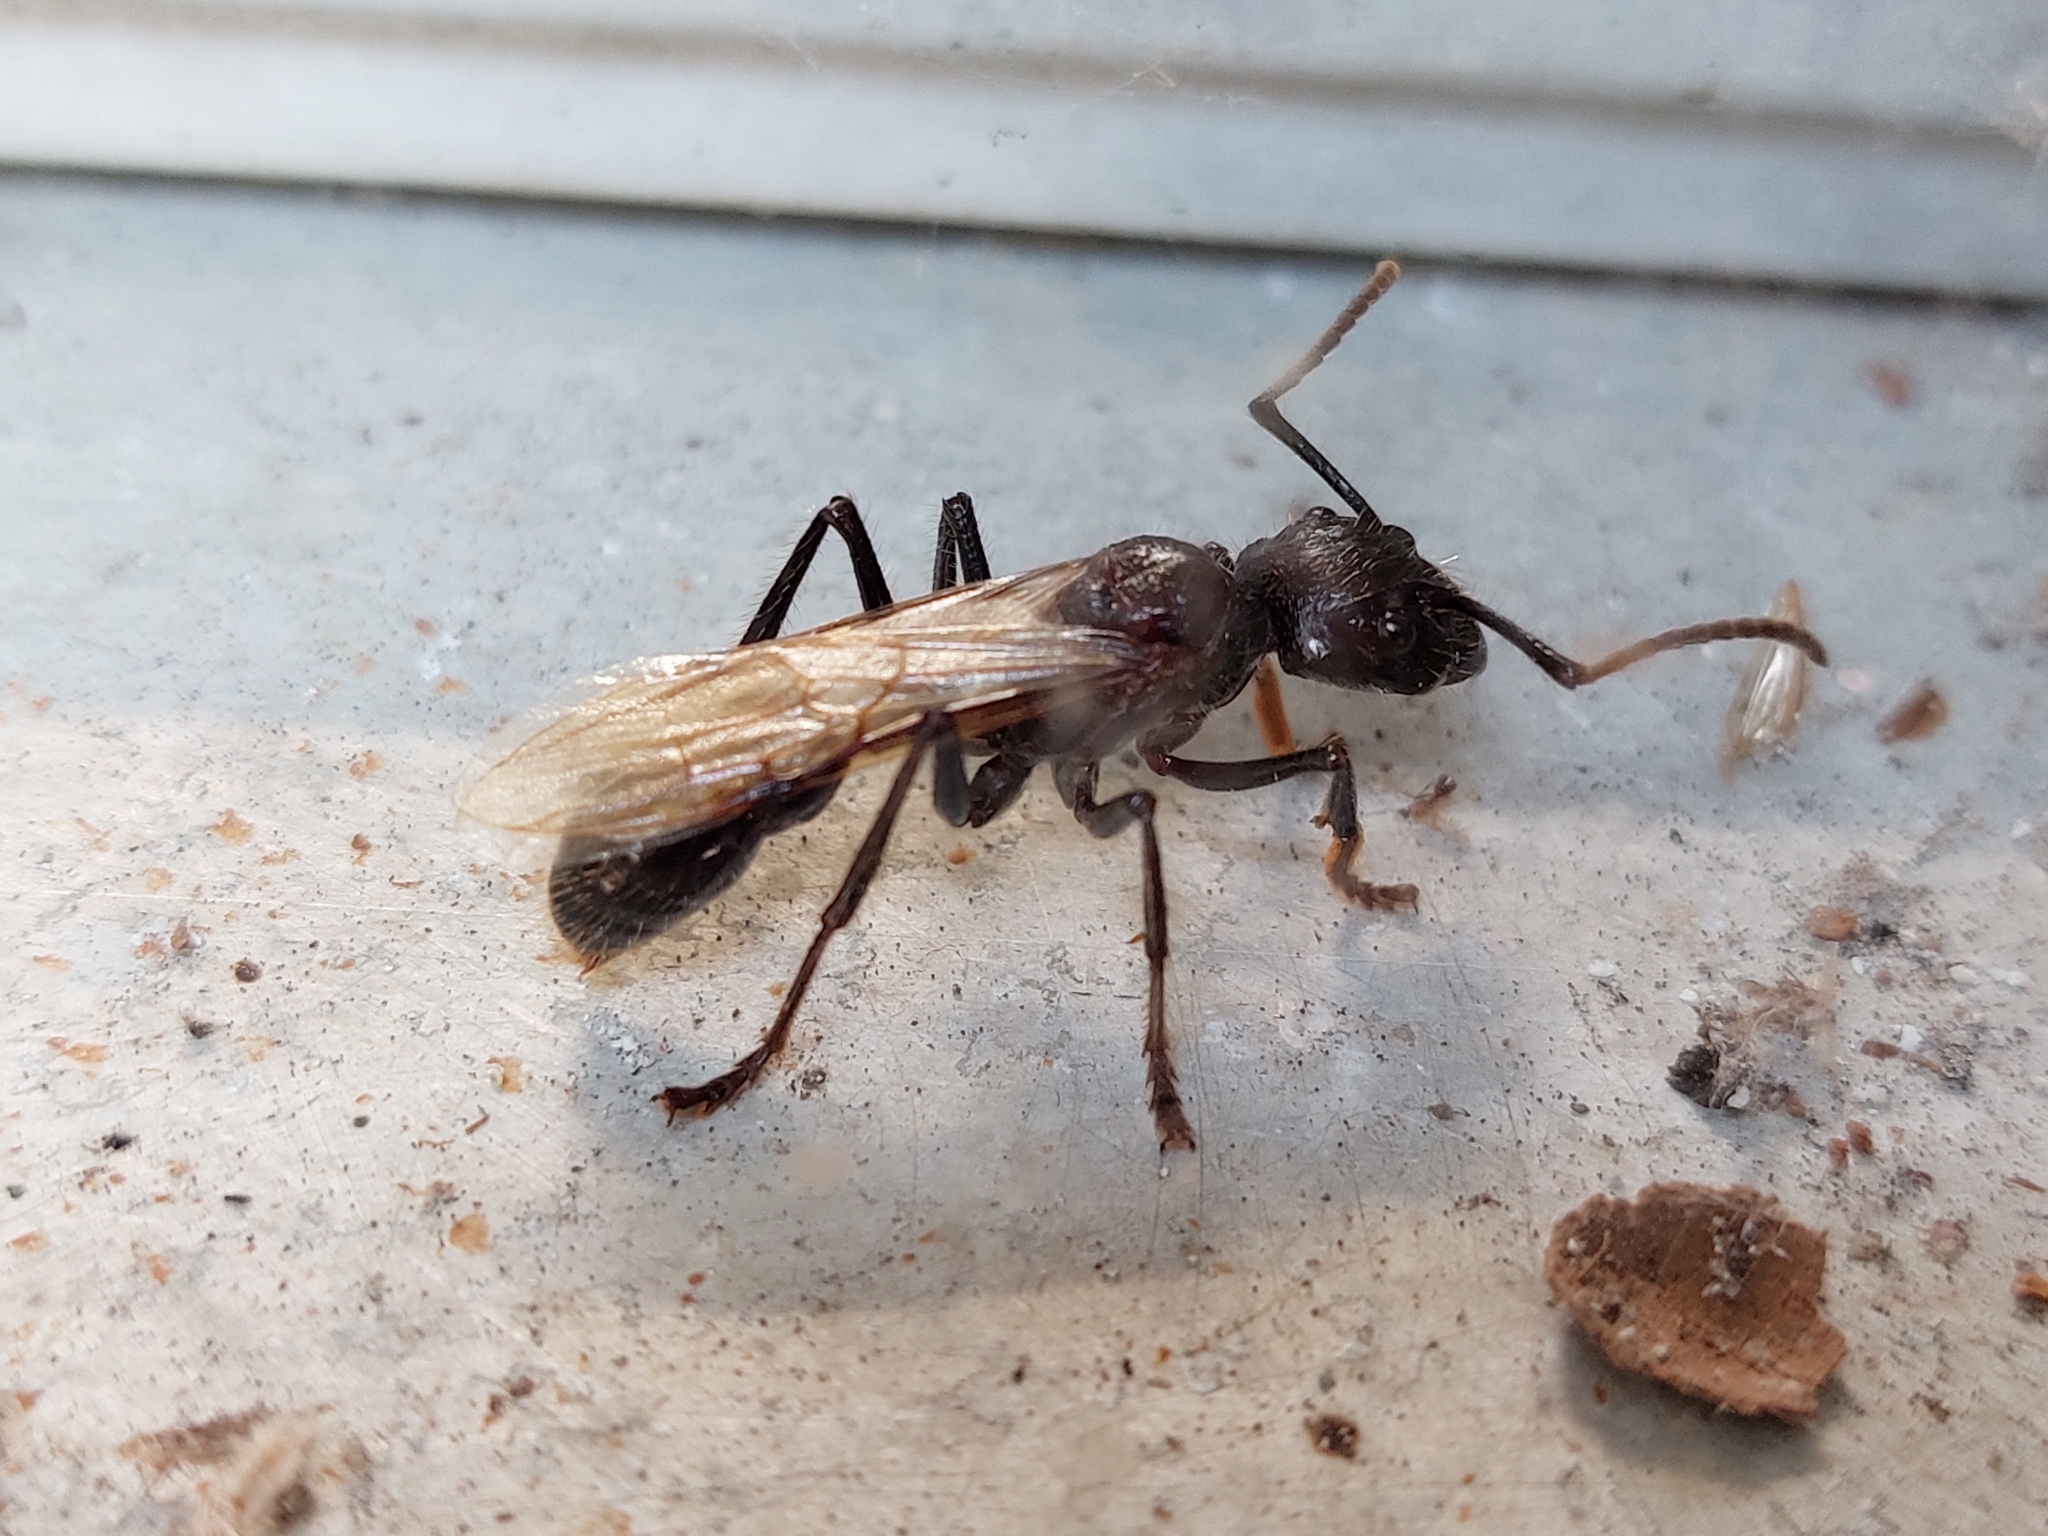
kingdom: Animalia
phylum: Arthropoda
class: Insecta
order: Hymenoptera
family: Formicidae
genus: Paraponera
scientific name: Paraponera clavata
